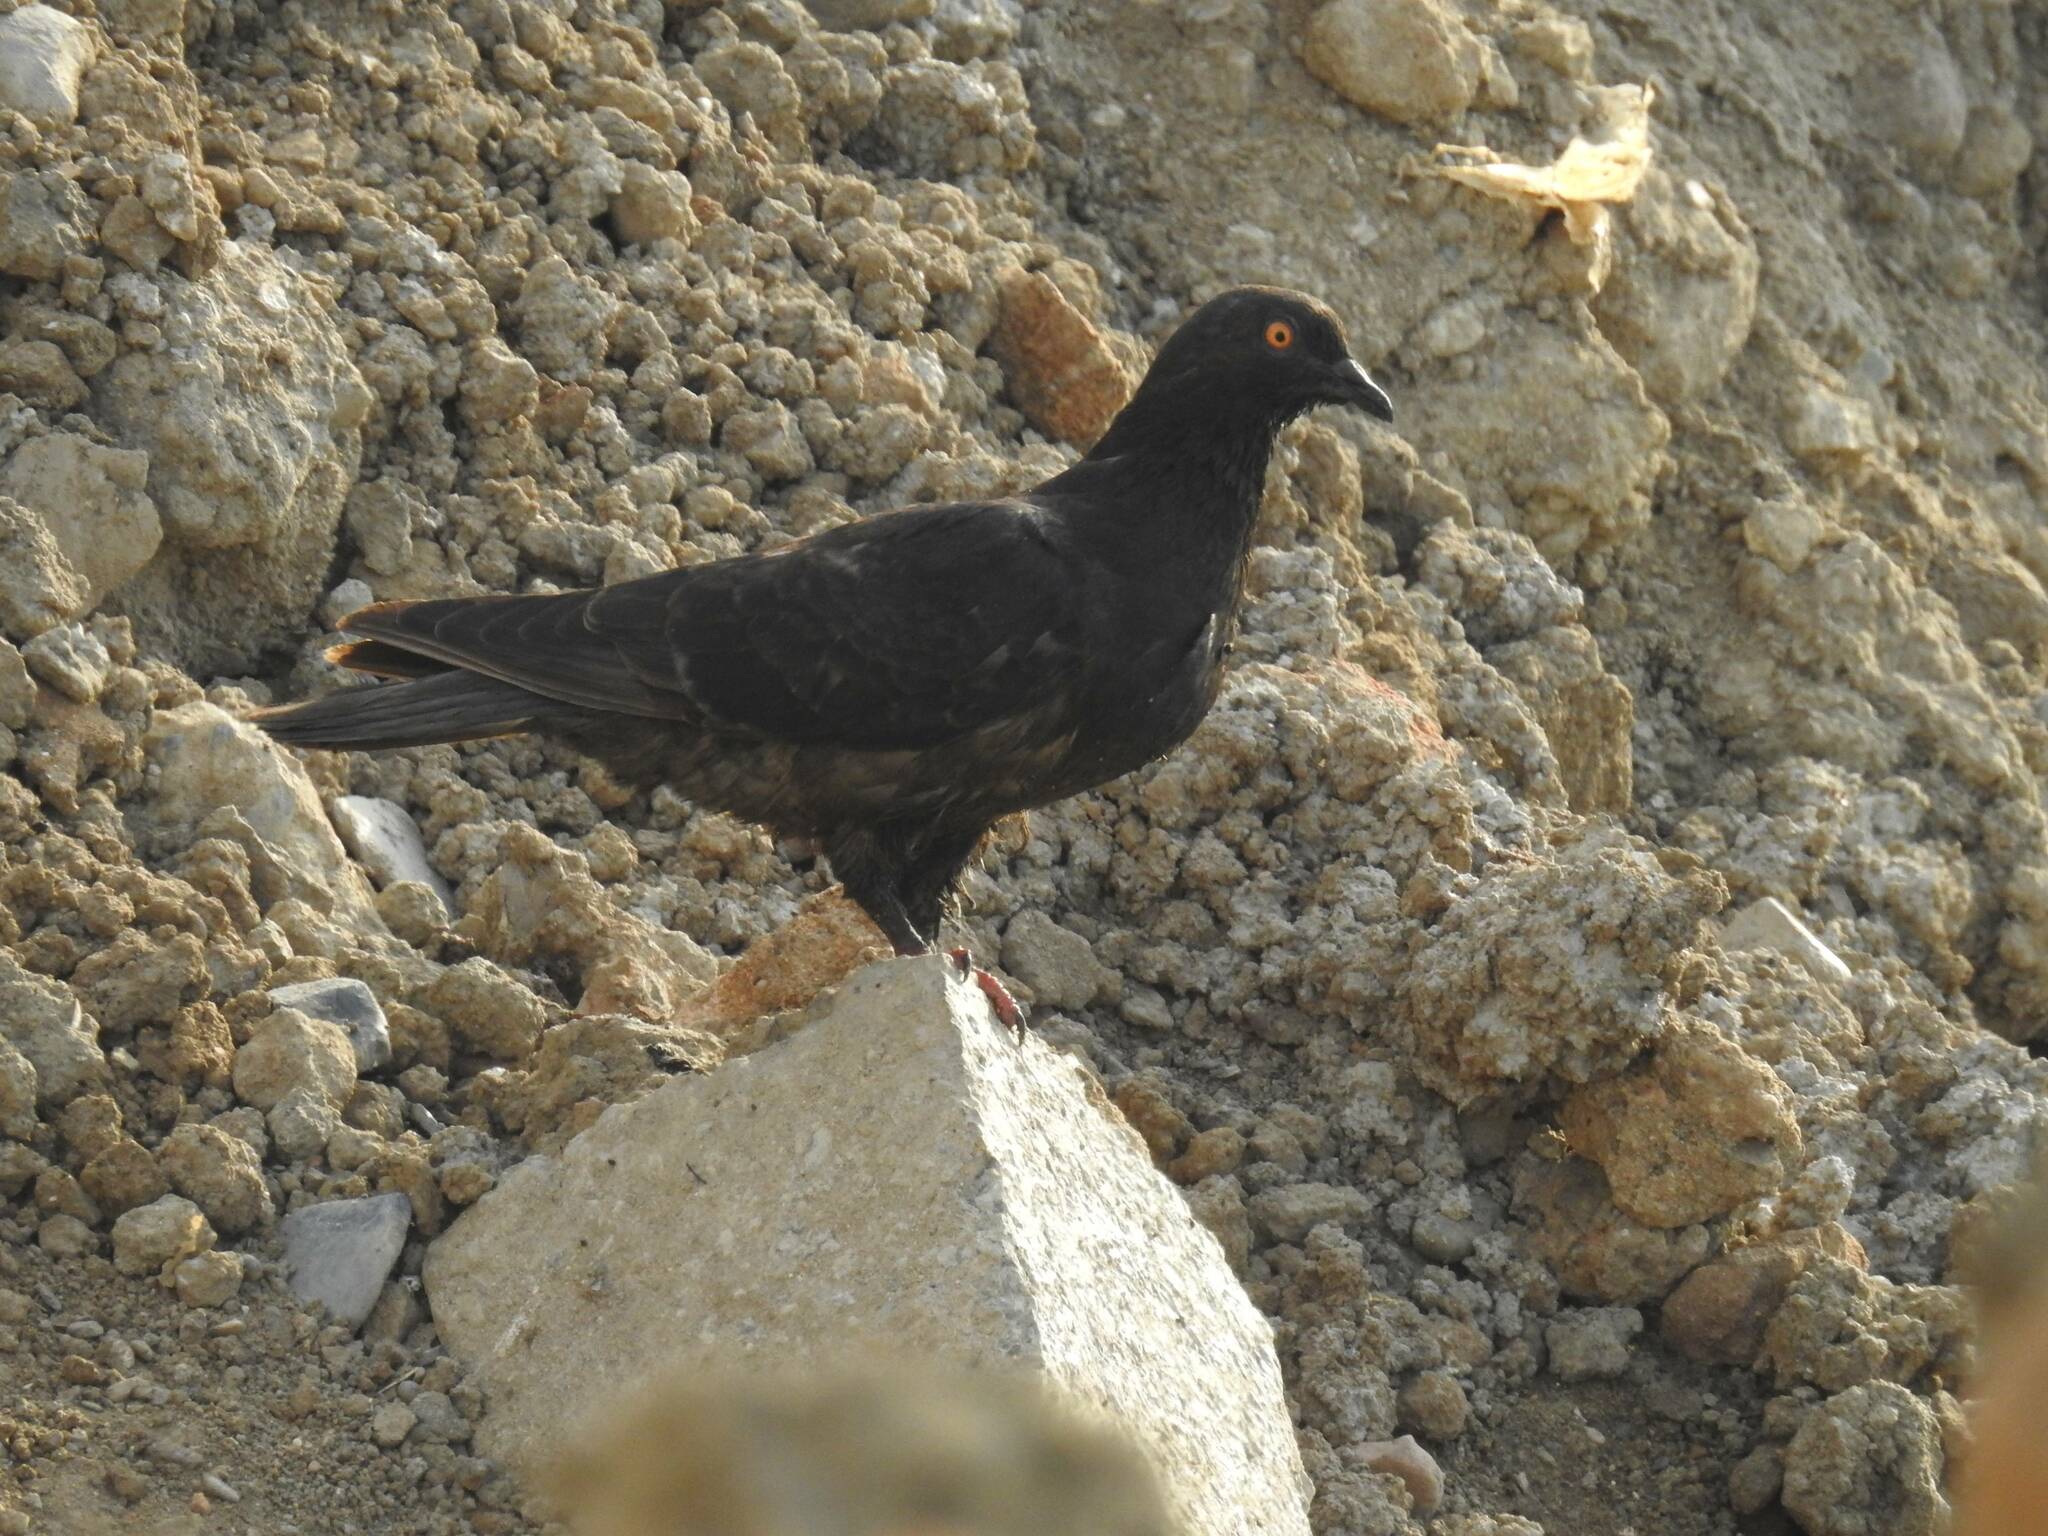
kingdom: Animalia
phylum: Chordata
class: Aves
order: Columbiformes
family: Columbidae
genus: Columba
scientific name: Columba livia
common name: Rock pigeon
